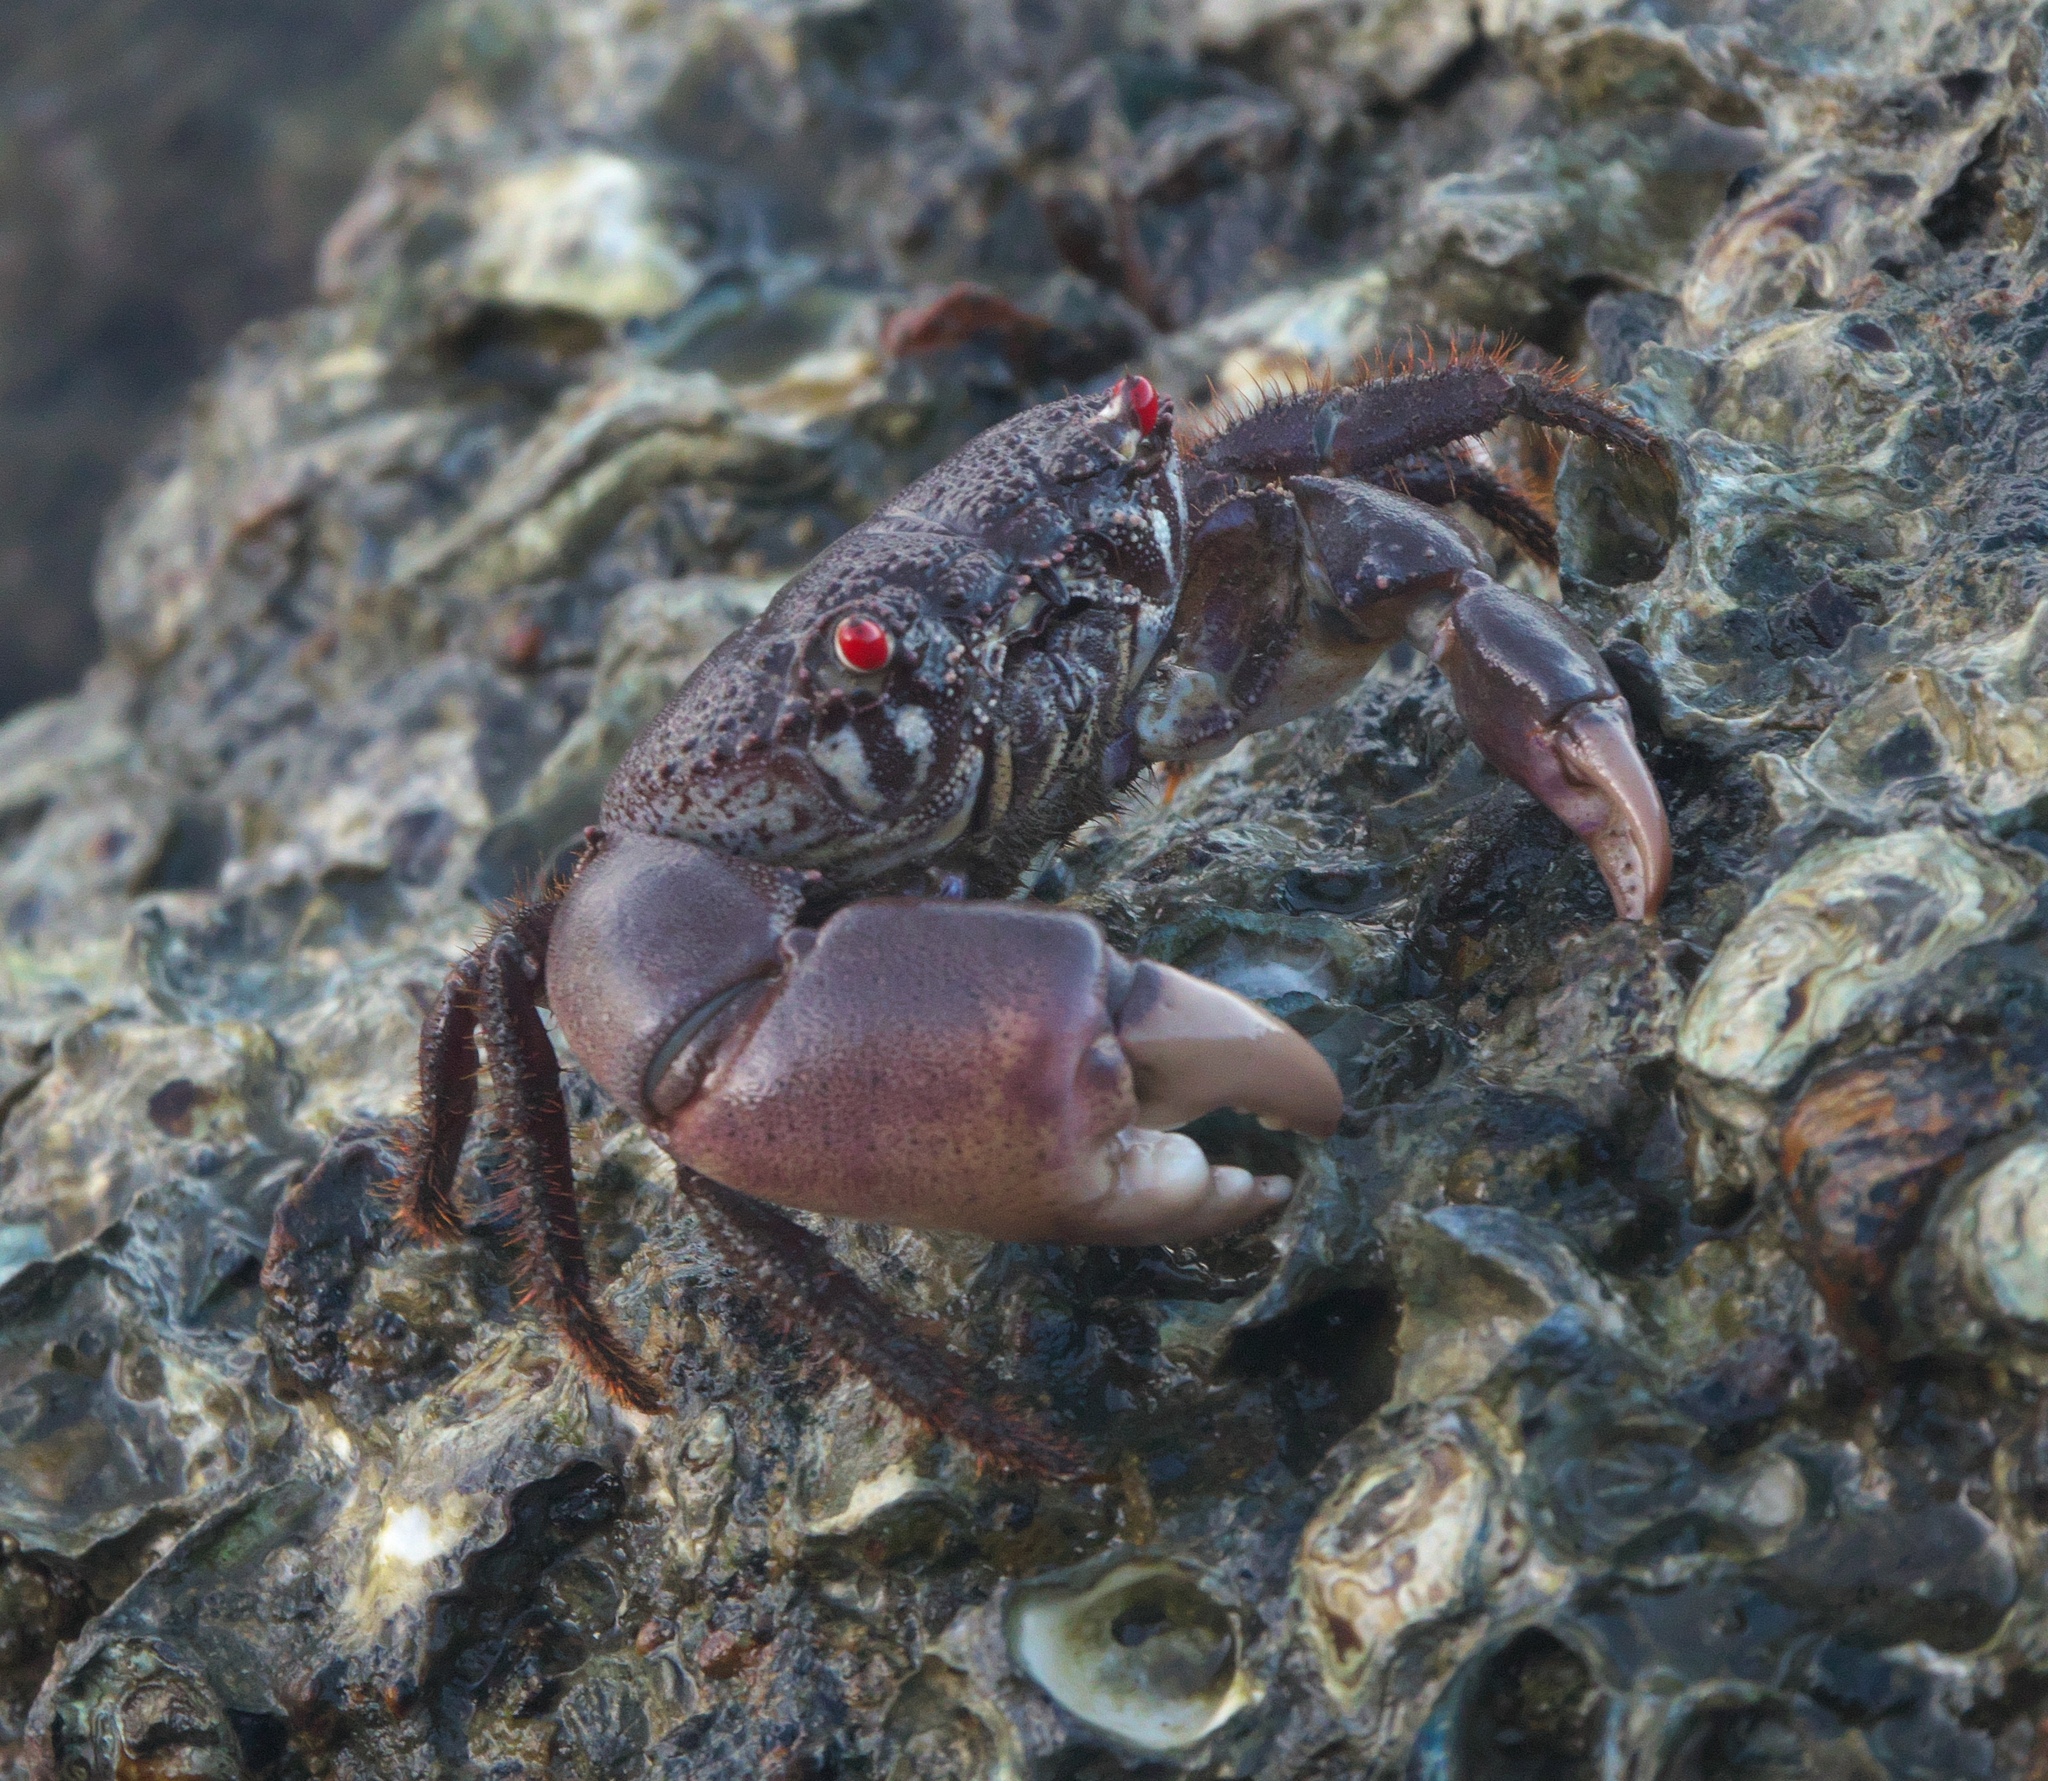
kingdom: Animalia
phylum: Arthropoda
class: Malacostraca
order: Decapoda
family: Eriphiidae
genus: Eriphia
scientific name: Eriphia sebana
